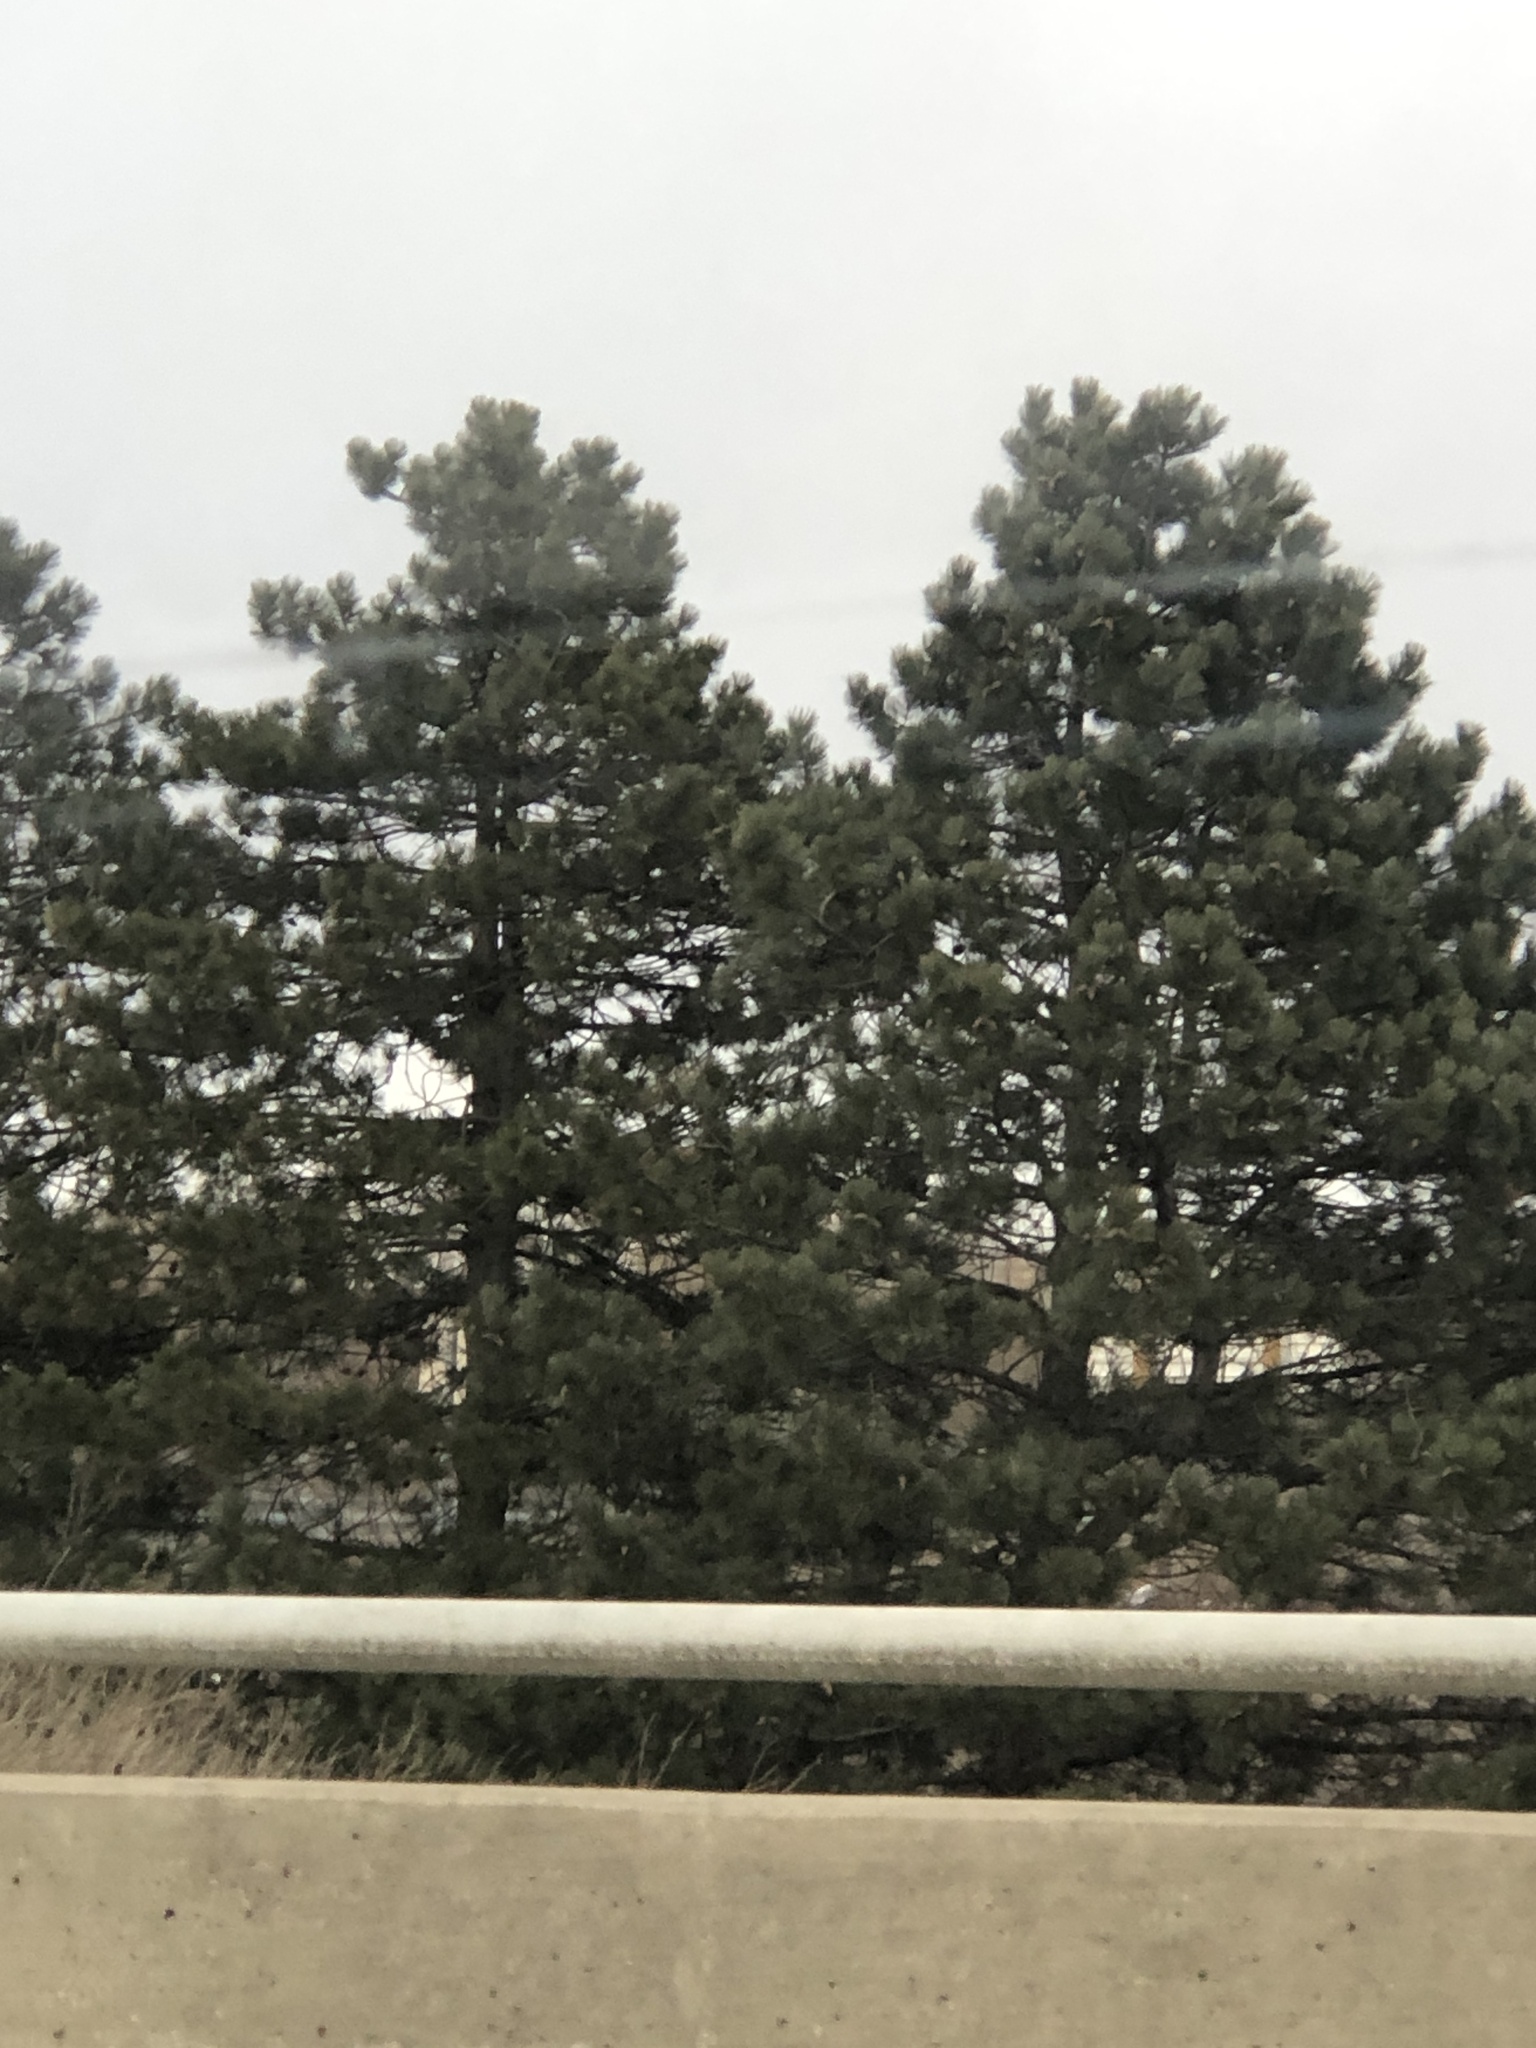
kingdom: Plantae
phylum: Tracheophyta
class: Pinopsida
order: Pinales
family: Pinaceae
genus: Pinus
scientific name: Pinus nigra
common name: Austrian pine
